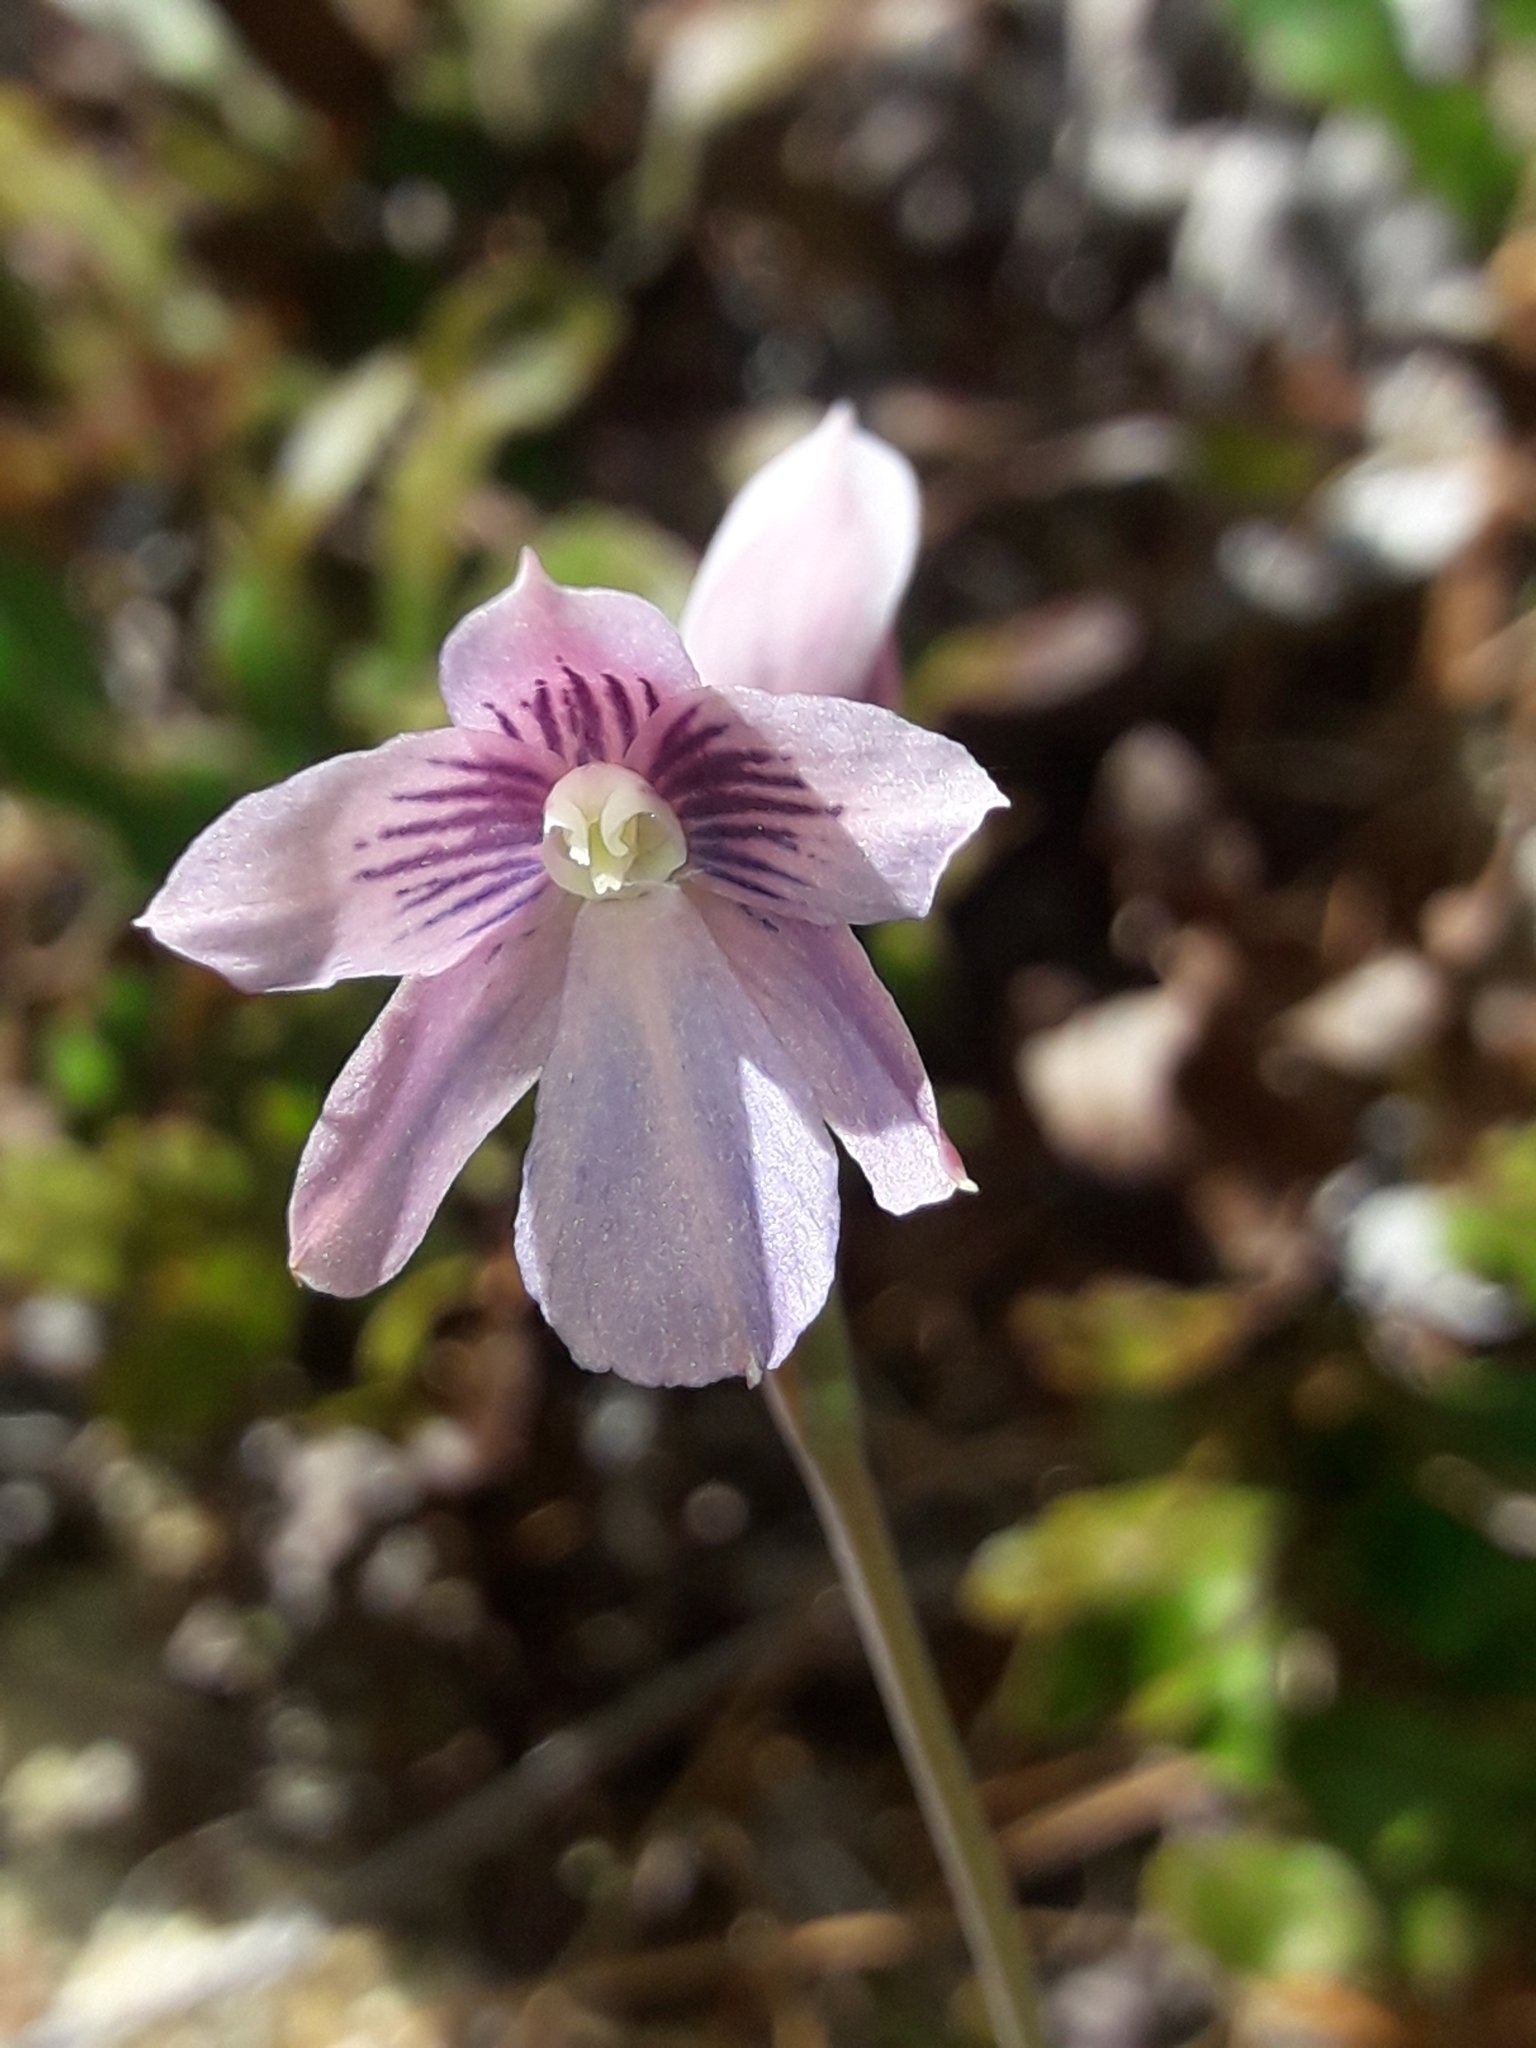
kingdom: Plantae
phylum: Tracheophyta
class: Liliopsida
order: Asparagales
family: Orchidaceae
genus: Thelymitra
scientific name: Thelymitra cyanea
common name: Blue sun-orchid
